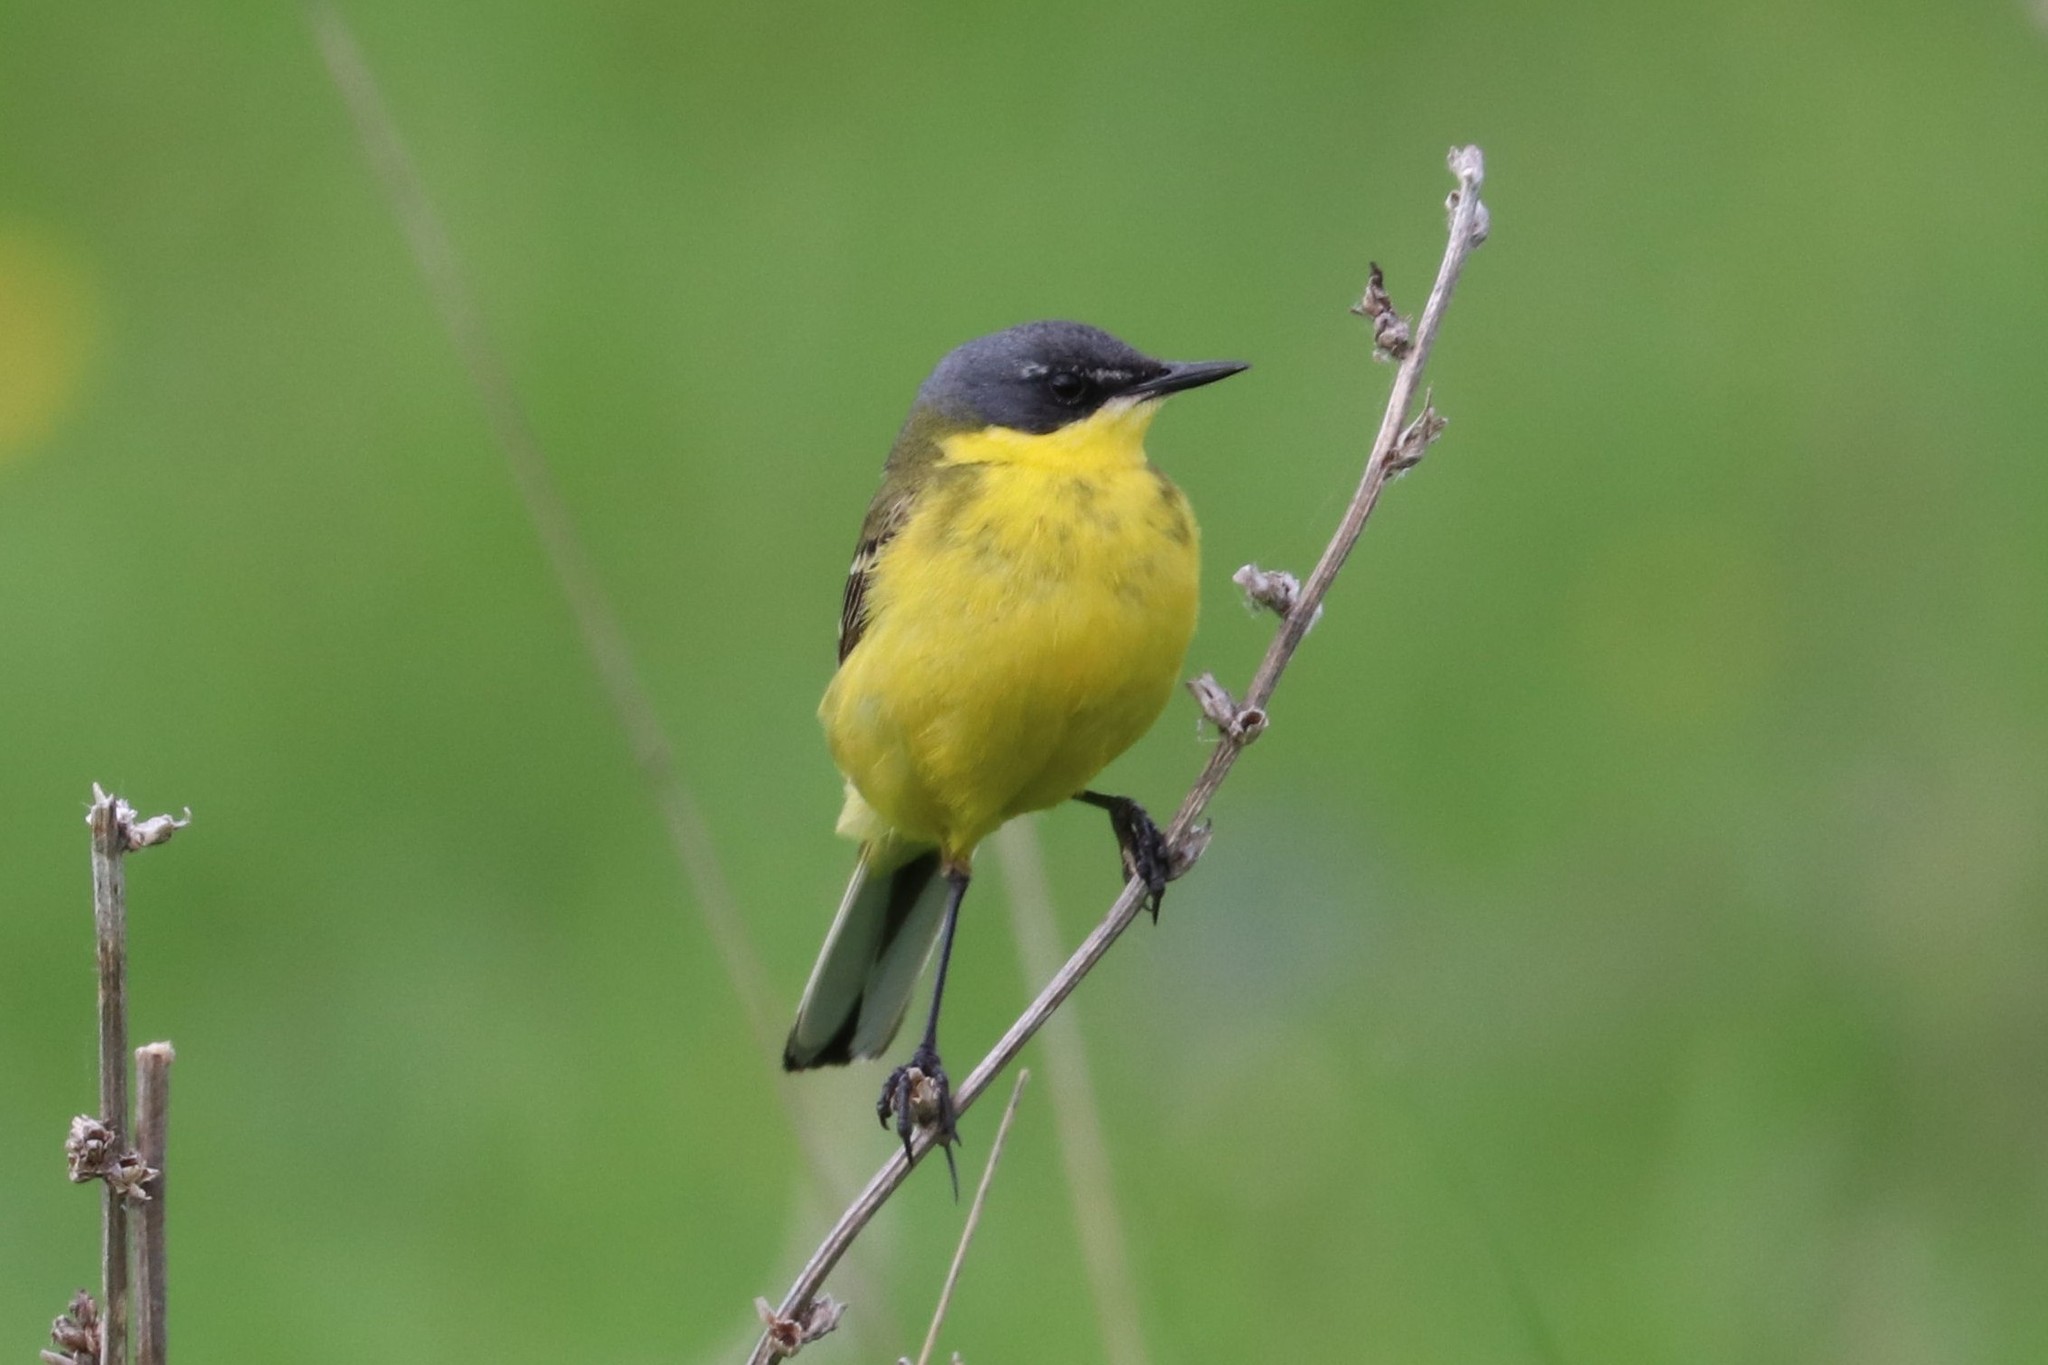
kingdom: Animalia
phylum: Chordata
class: Aves
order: Passeriformes
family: Motacillidae
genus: Motacilla
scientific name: Motacilla flava
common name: Western yellow wagtail
